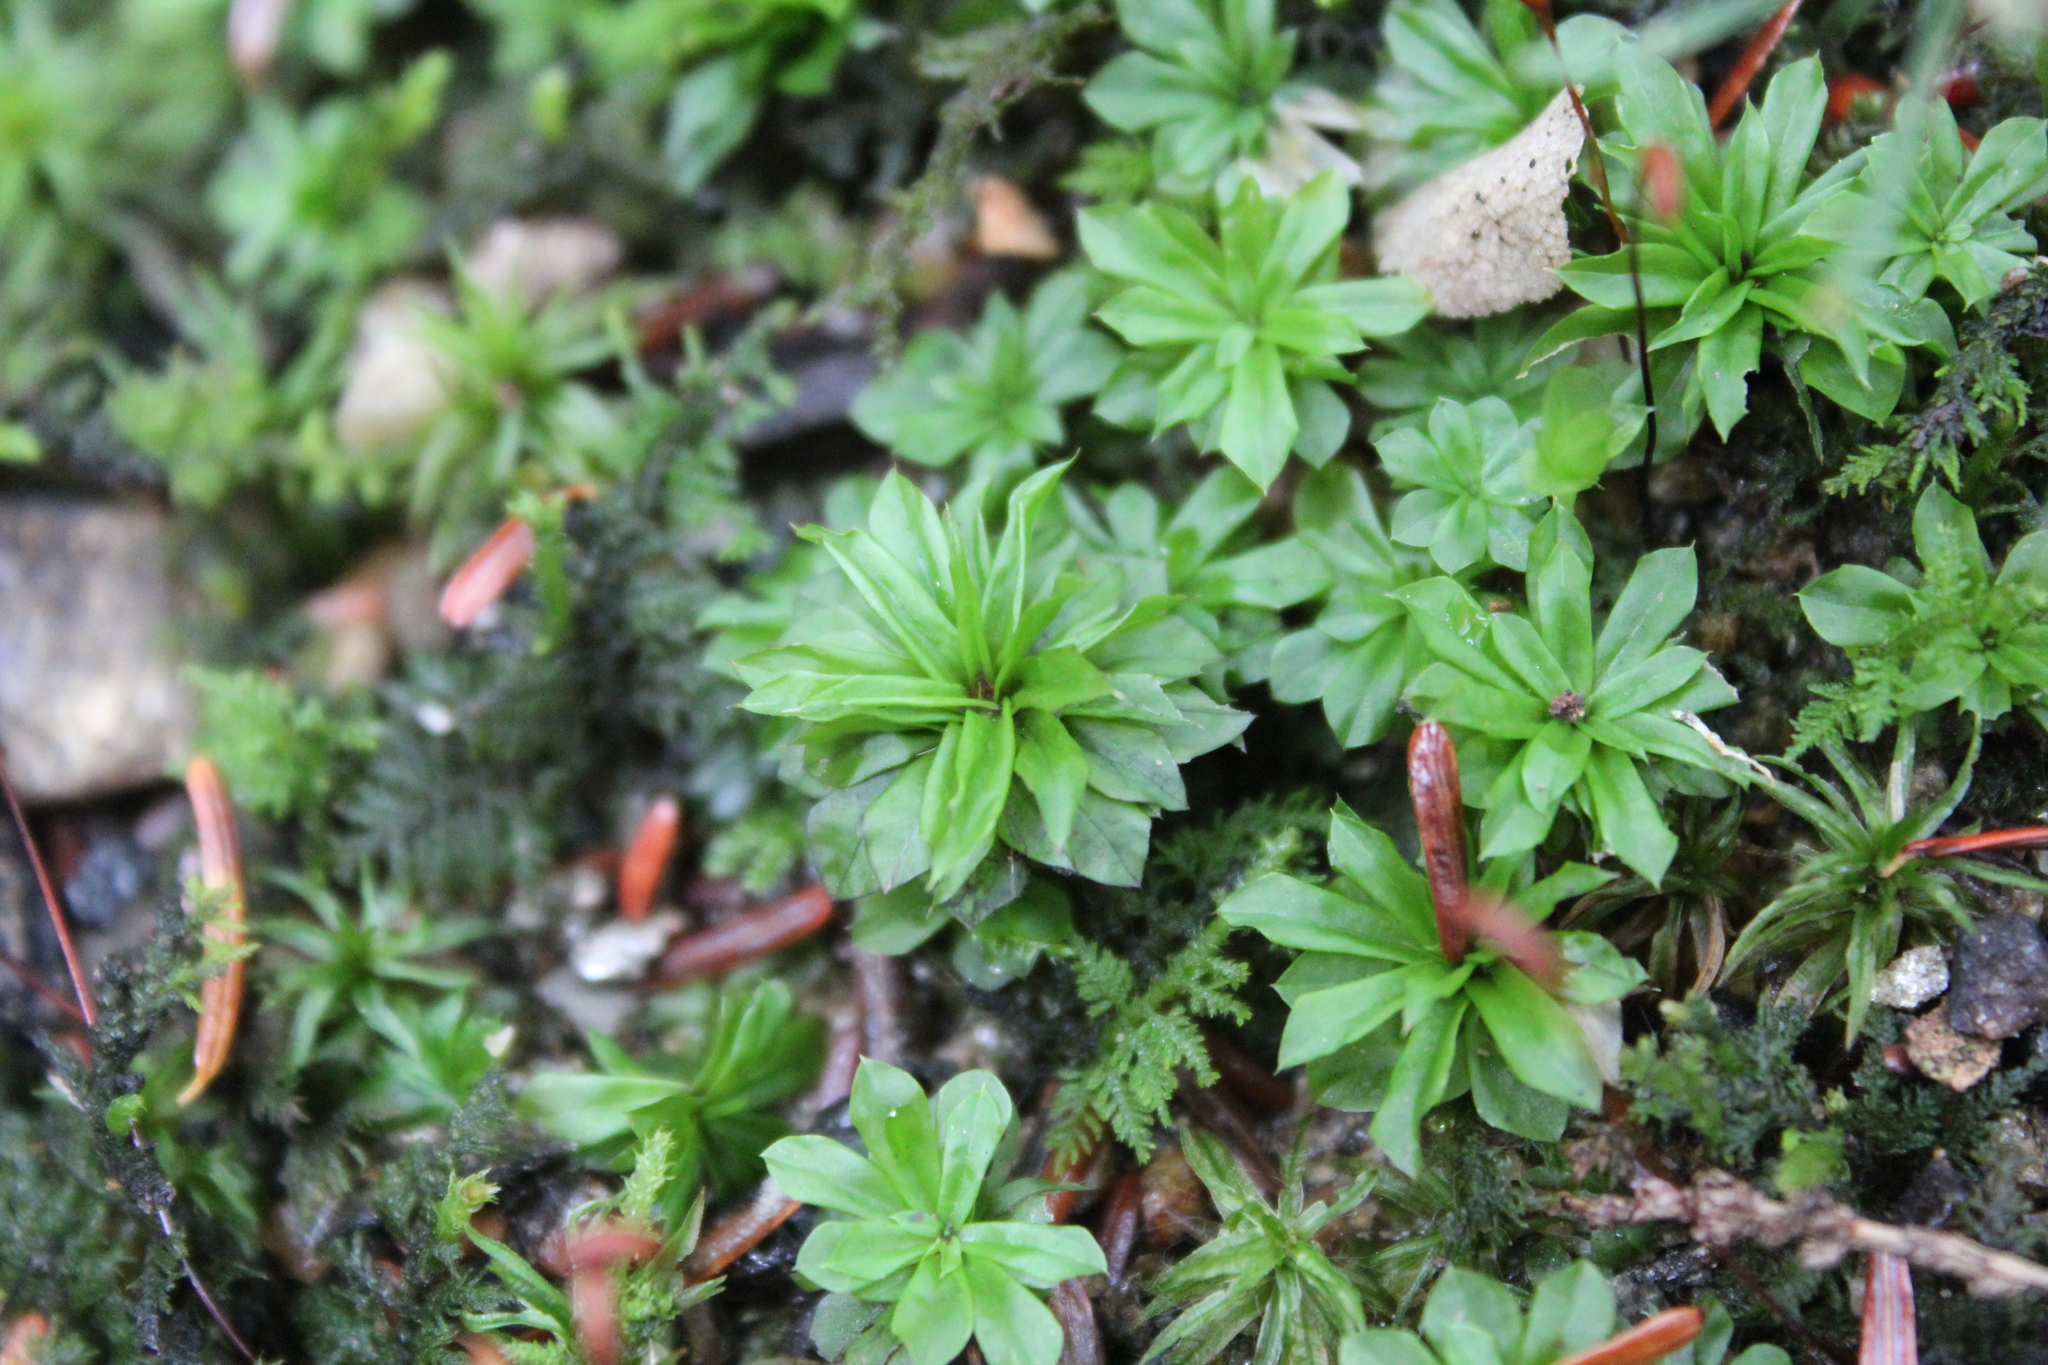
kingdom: Plantae
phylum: Bryophyta
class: Bryopsida
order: Bryales
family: Bryaceae
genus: Rhodobryum
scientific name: Rhodobryum ontariense
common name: Ontario rhodobryum moss
